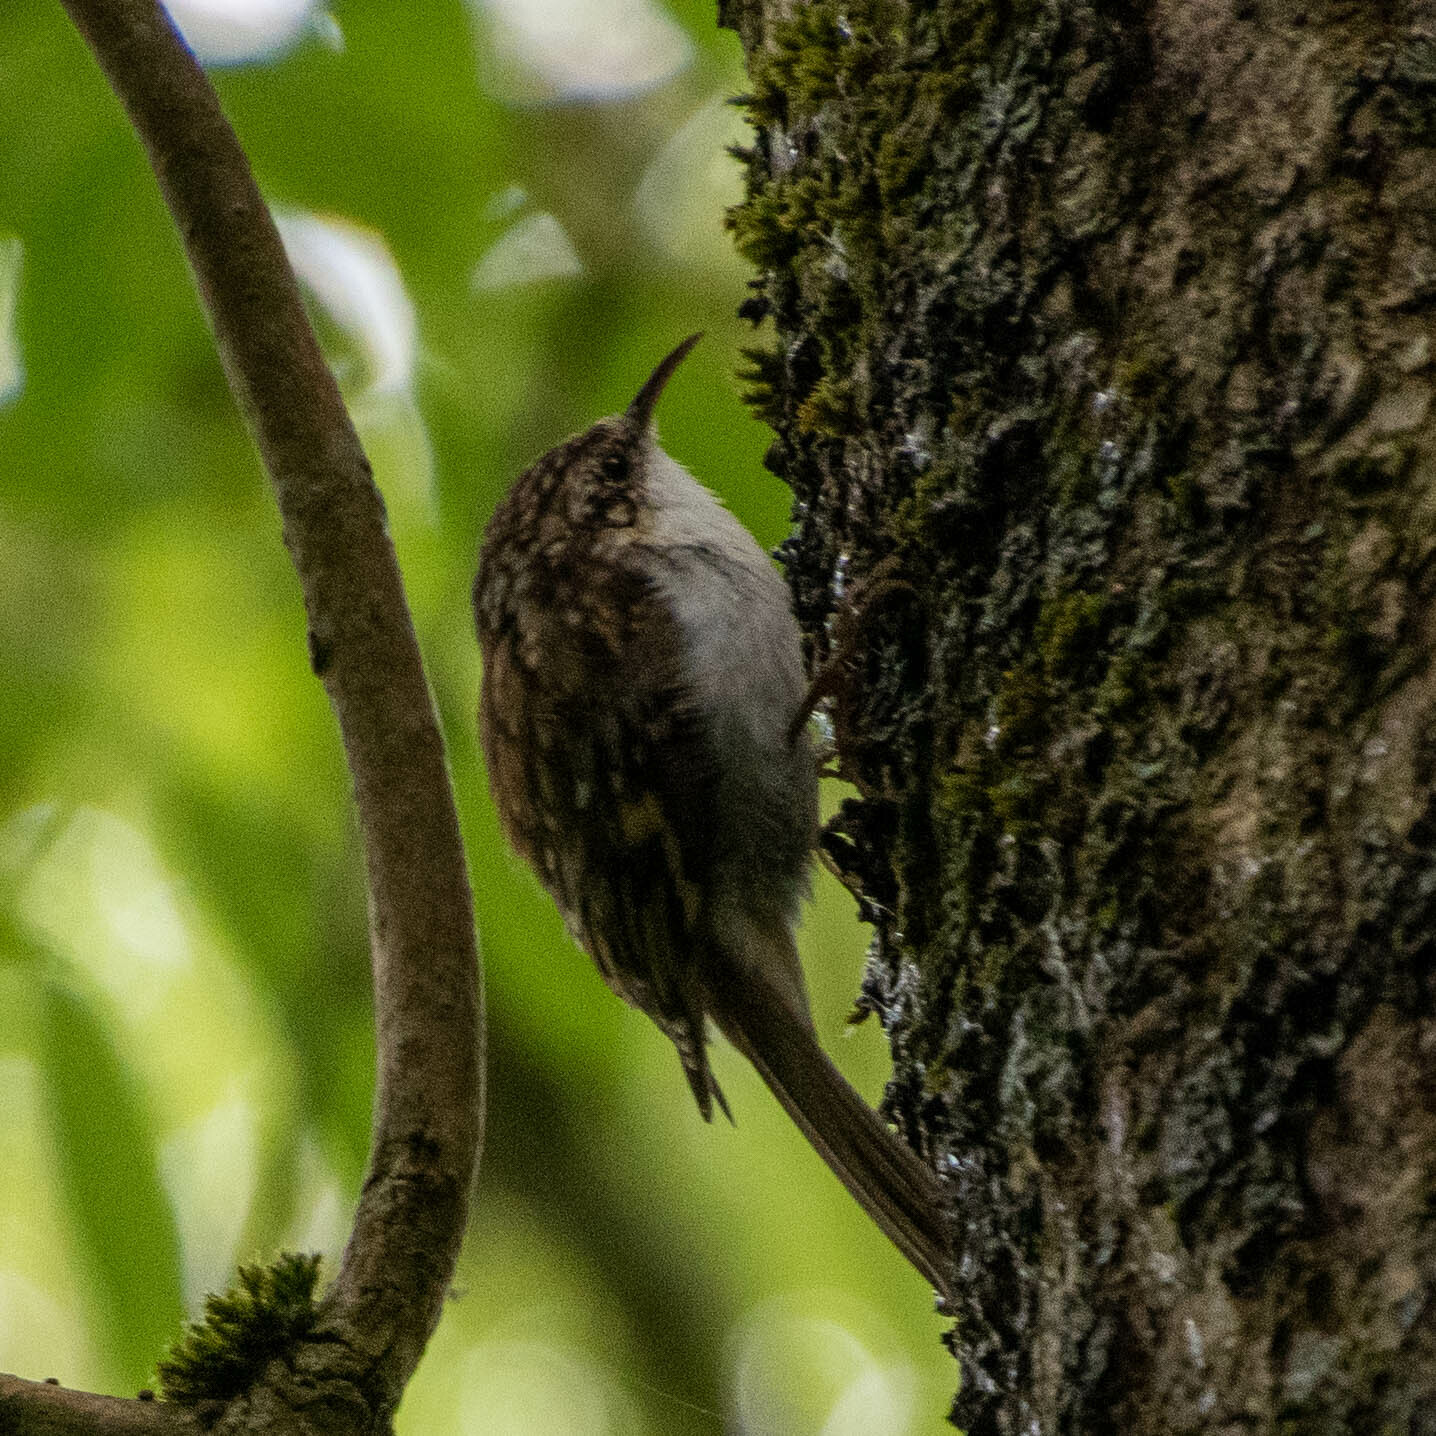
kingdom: Animalia
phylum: Chordata
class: Aves
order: Passeriformes
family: Certhiidae
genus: Certhia
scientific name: Certhia familiaris
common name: Eurasian treecreeper
